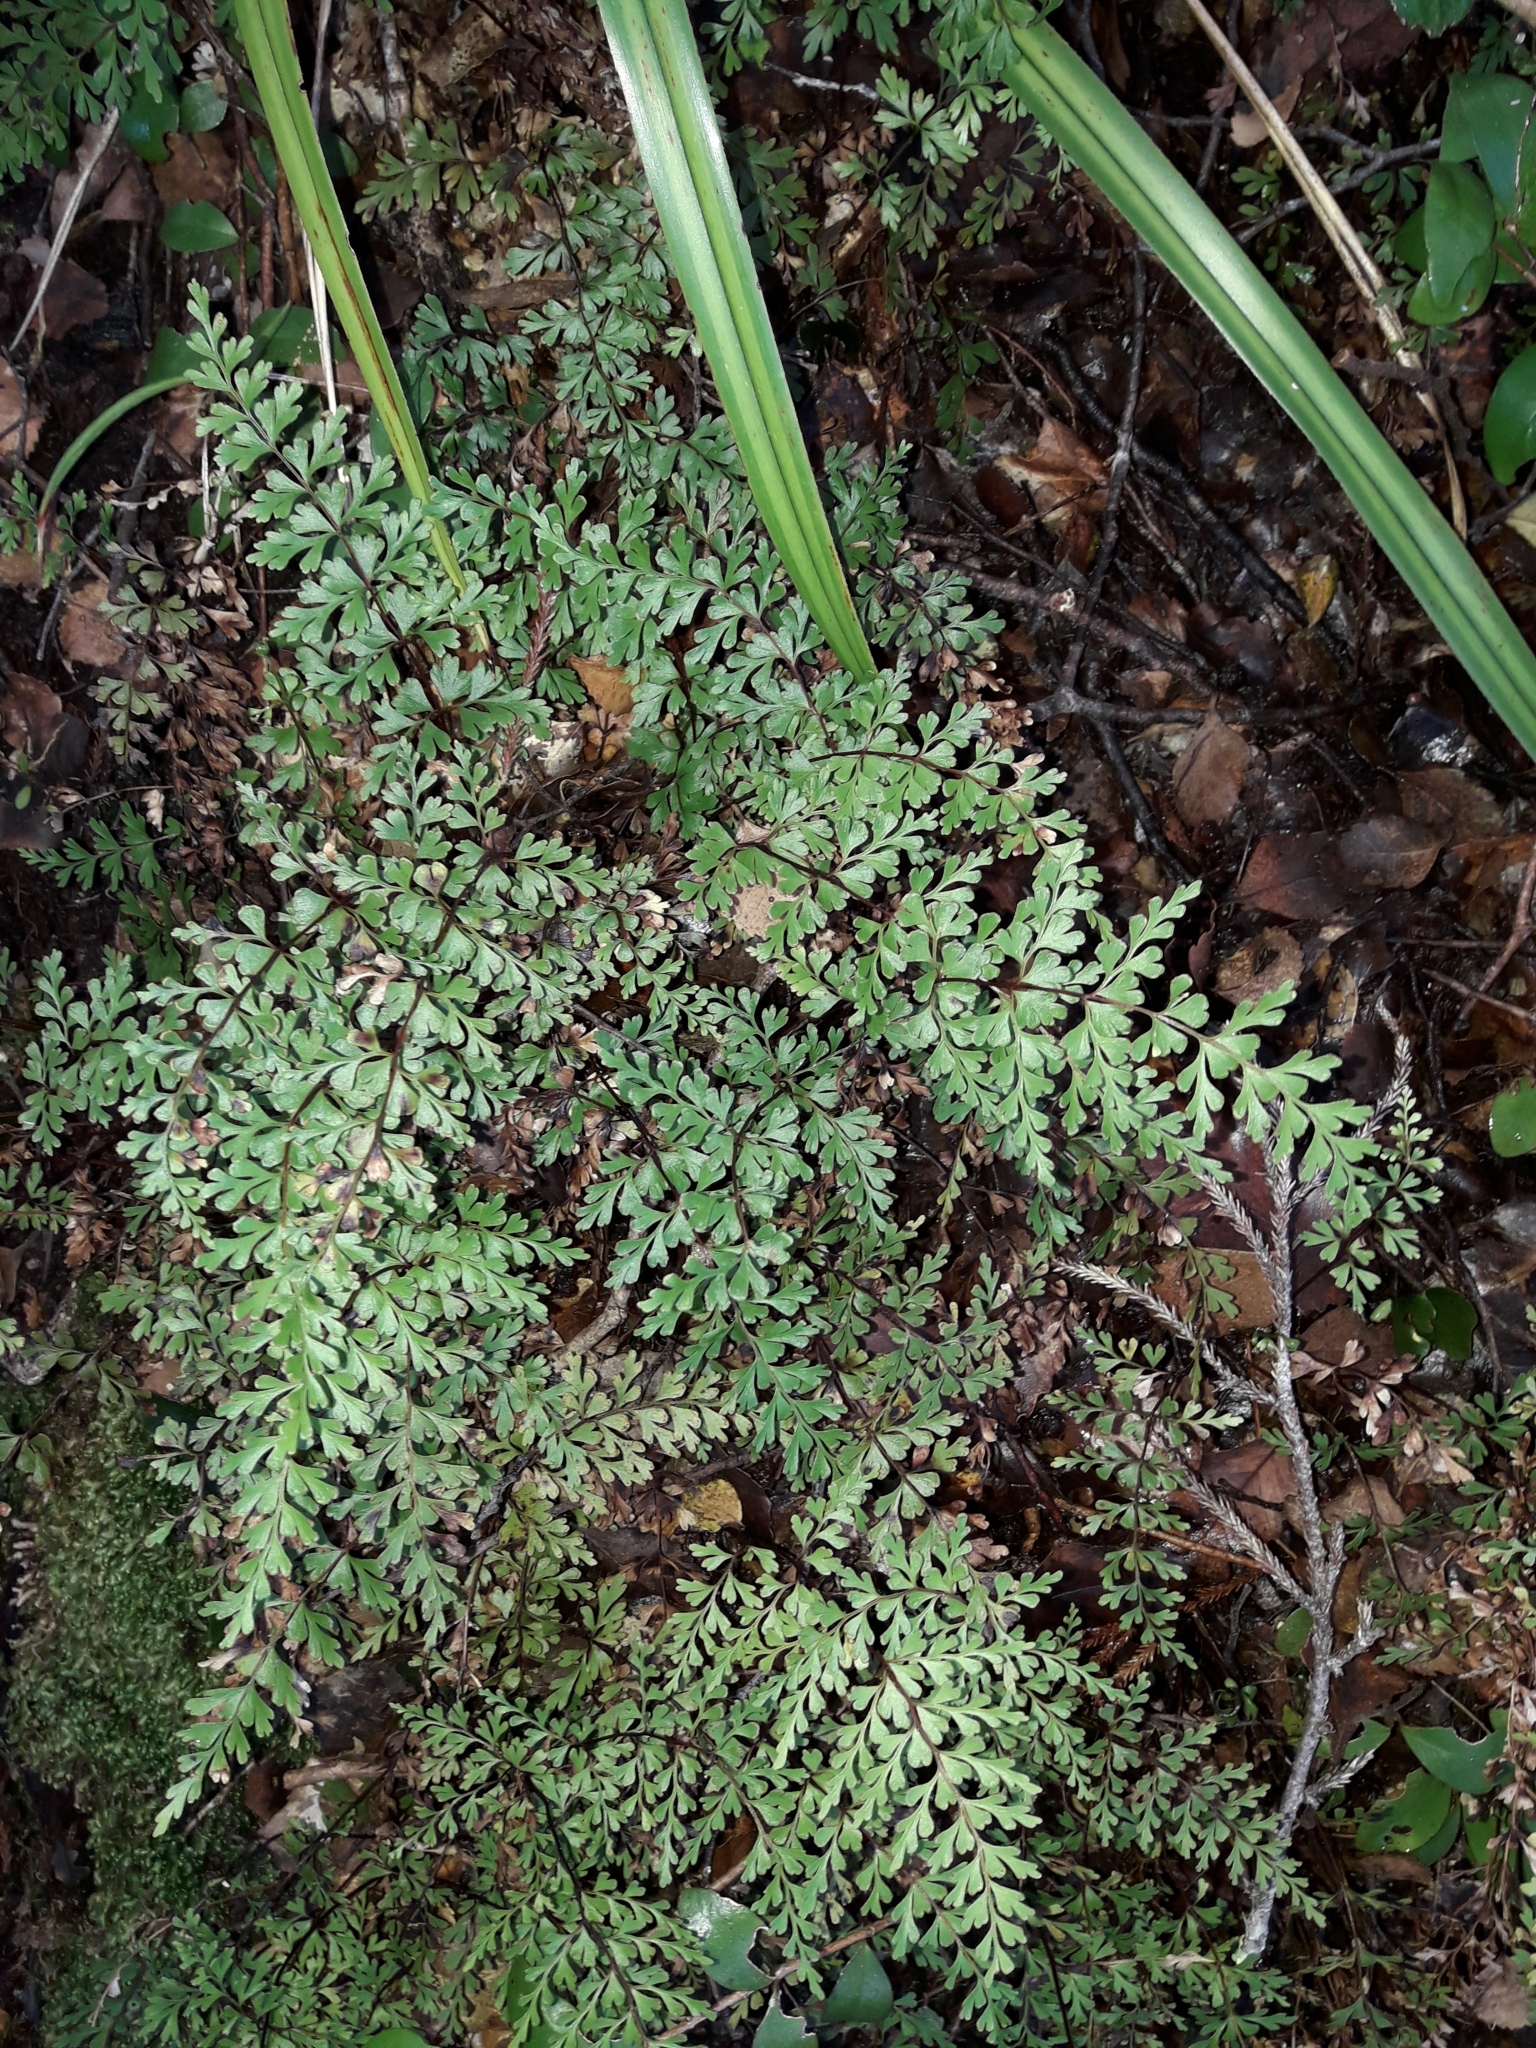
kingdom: Plantae
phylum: Tracheophyta
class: Polypodiopsida
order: Polypodiales
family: Lindsaeaceae
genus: Lindsaea
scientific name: Lindsaea trichomanoides
